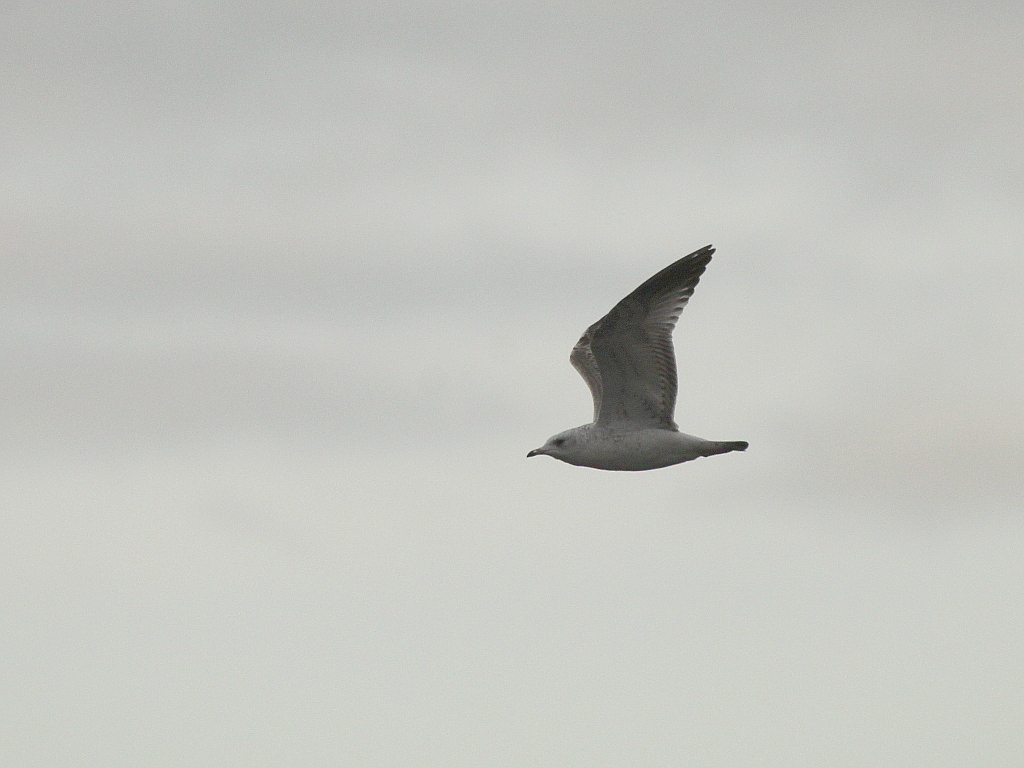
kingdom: Animalia
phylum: Chordata
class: Aves
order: Charadriiformes
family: Laridae
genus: Larus
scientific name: Larus canus
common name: Mew gull
